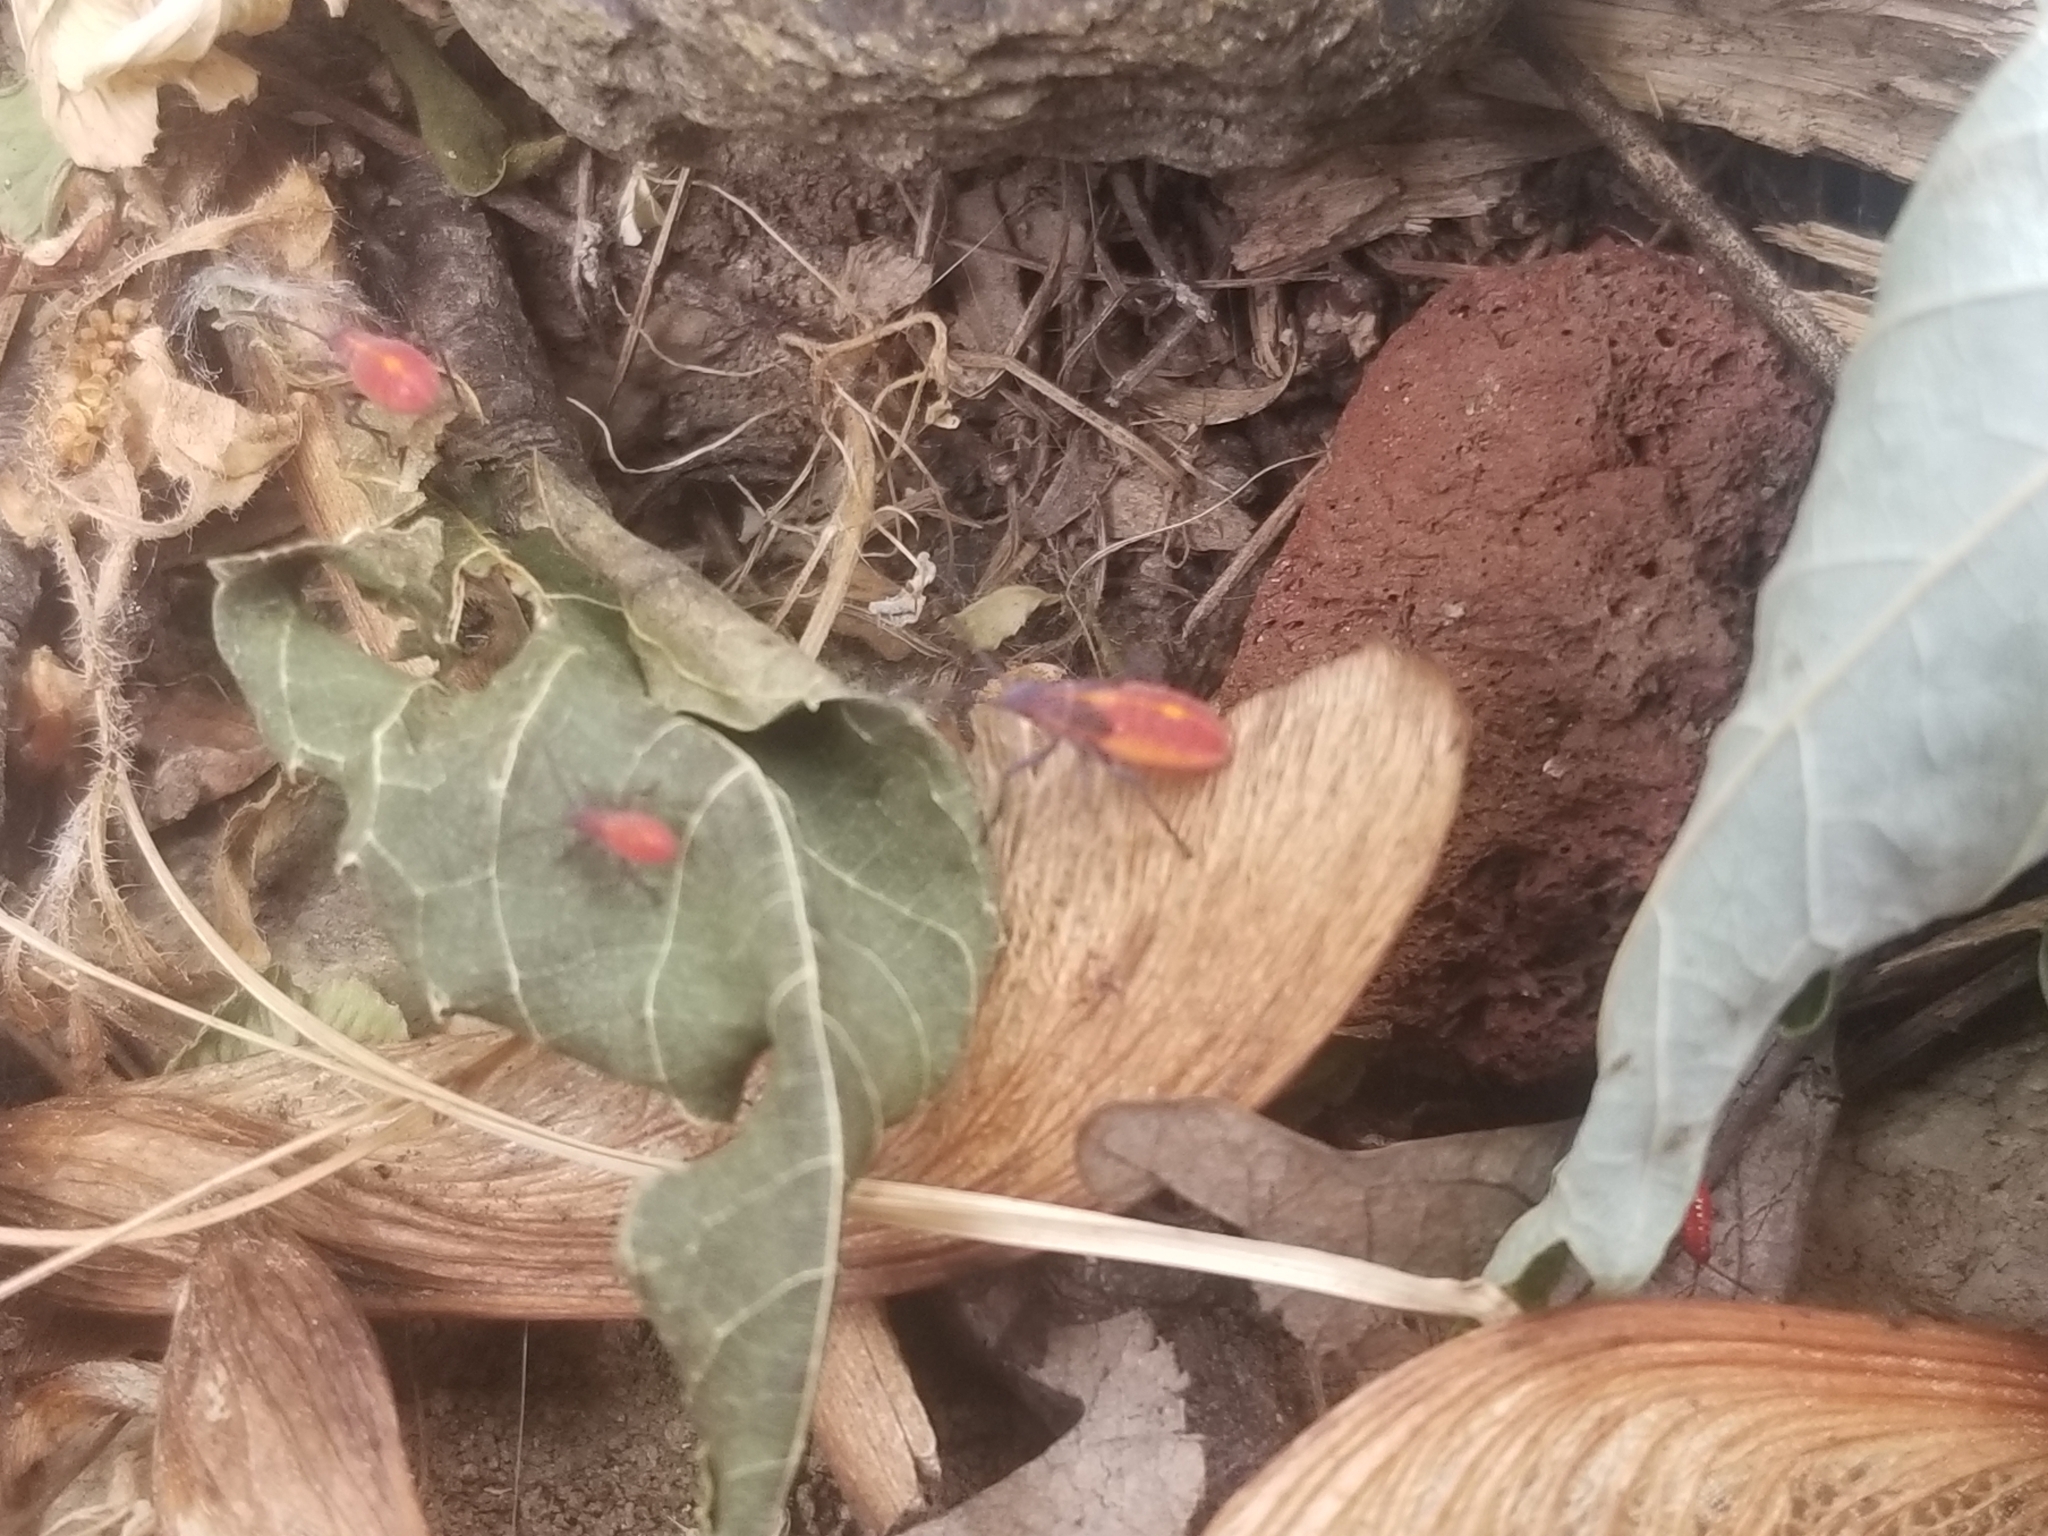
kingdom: Animalia
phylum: Arthropoda
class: Insecta
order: Hemiptera
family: Rhopalidae
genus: Boisea
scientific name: Boisea trivittata
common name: Boxelder bug
